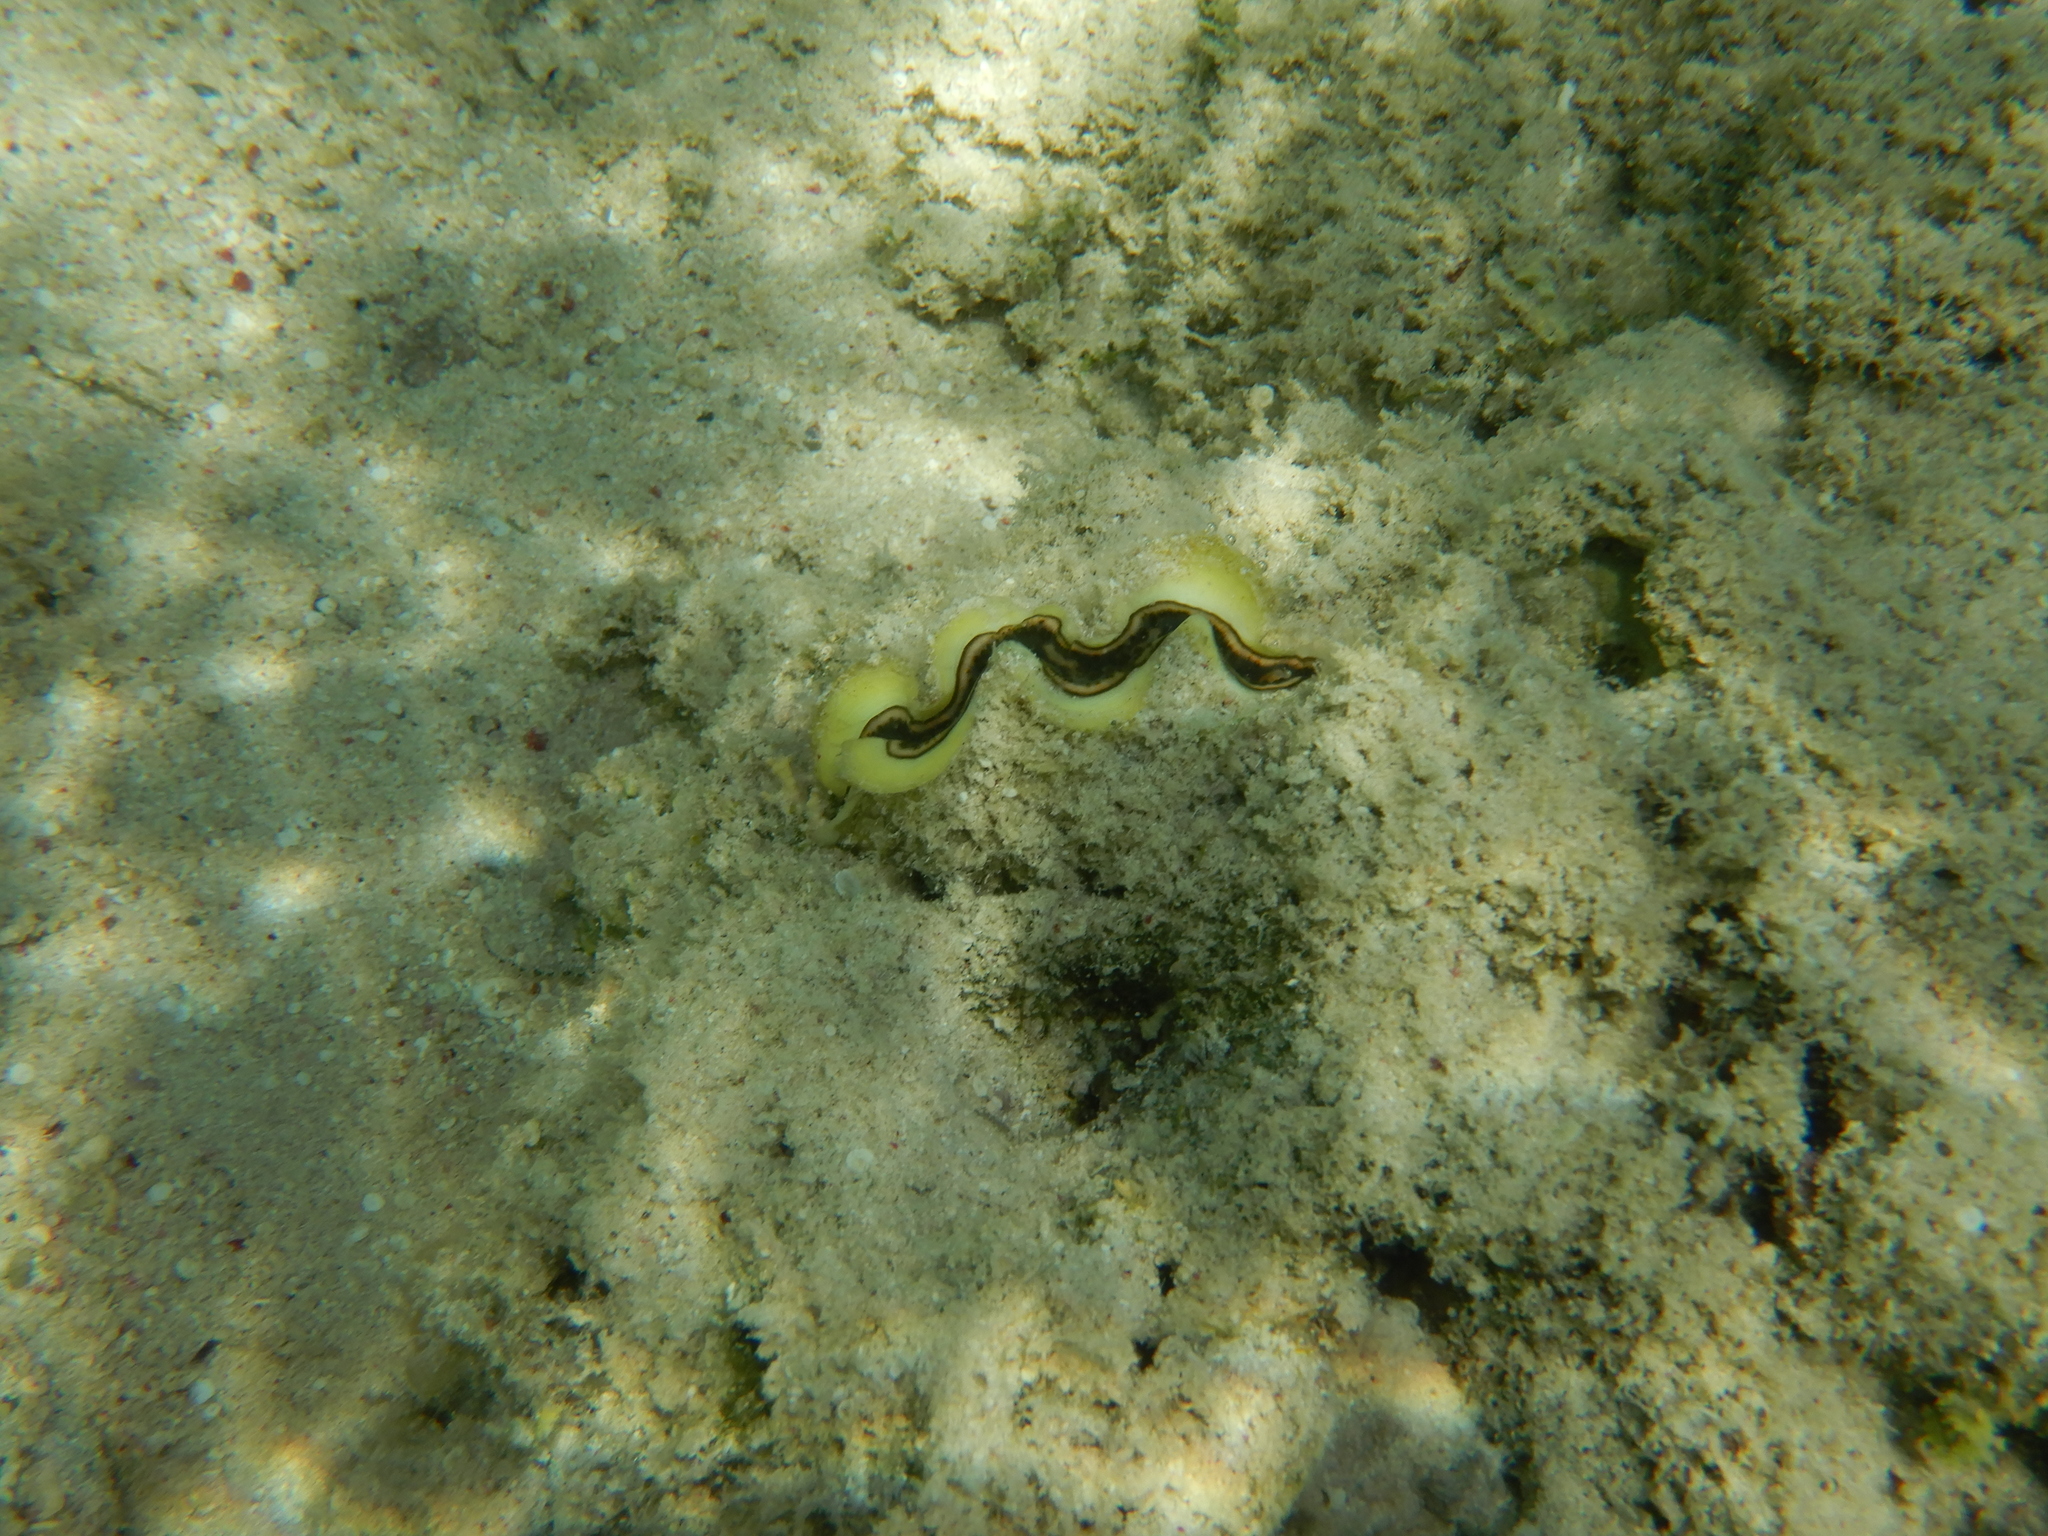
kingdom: Animalia
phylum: Mollusca
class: Bivalvia
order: Cardiida
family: Cardiidae
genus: Tridacna
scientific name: Tridacna maxima
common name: Small giant clam
